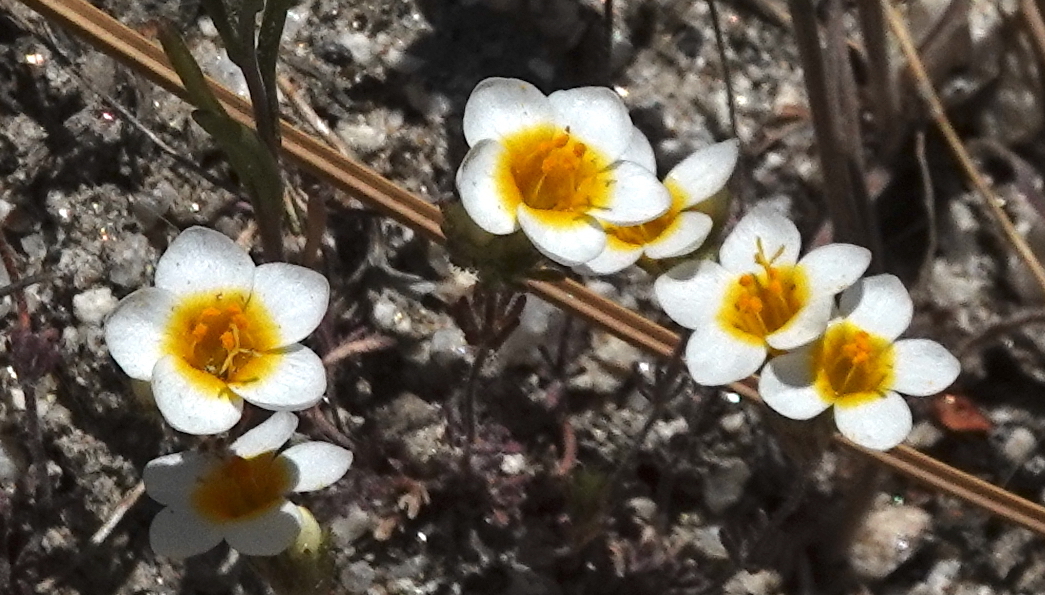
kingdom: Plantae
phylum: Tracheophyta
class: Magnoliopsida
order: Ericales
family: Polemoniaceae
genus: Leptosiphon
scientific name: Leptosiphon lemmonii
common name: Lemmon's linanthus
